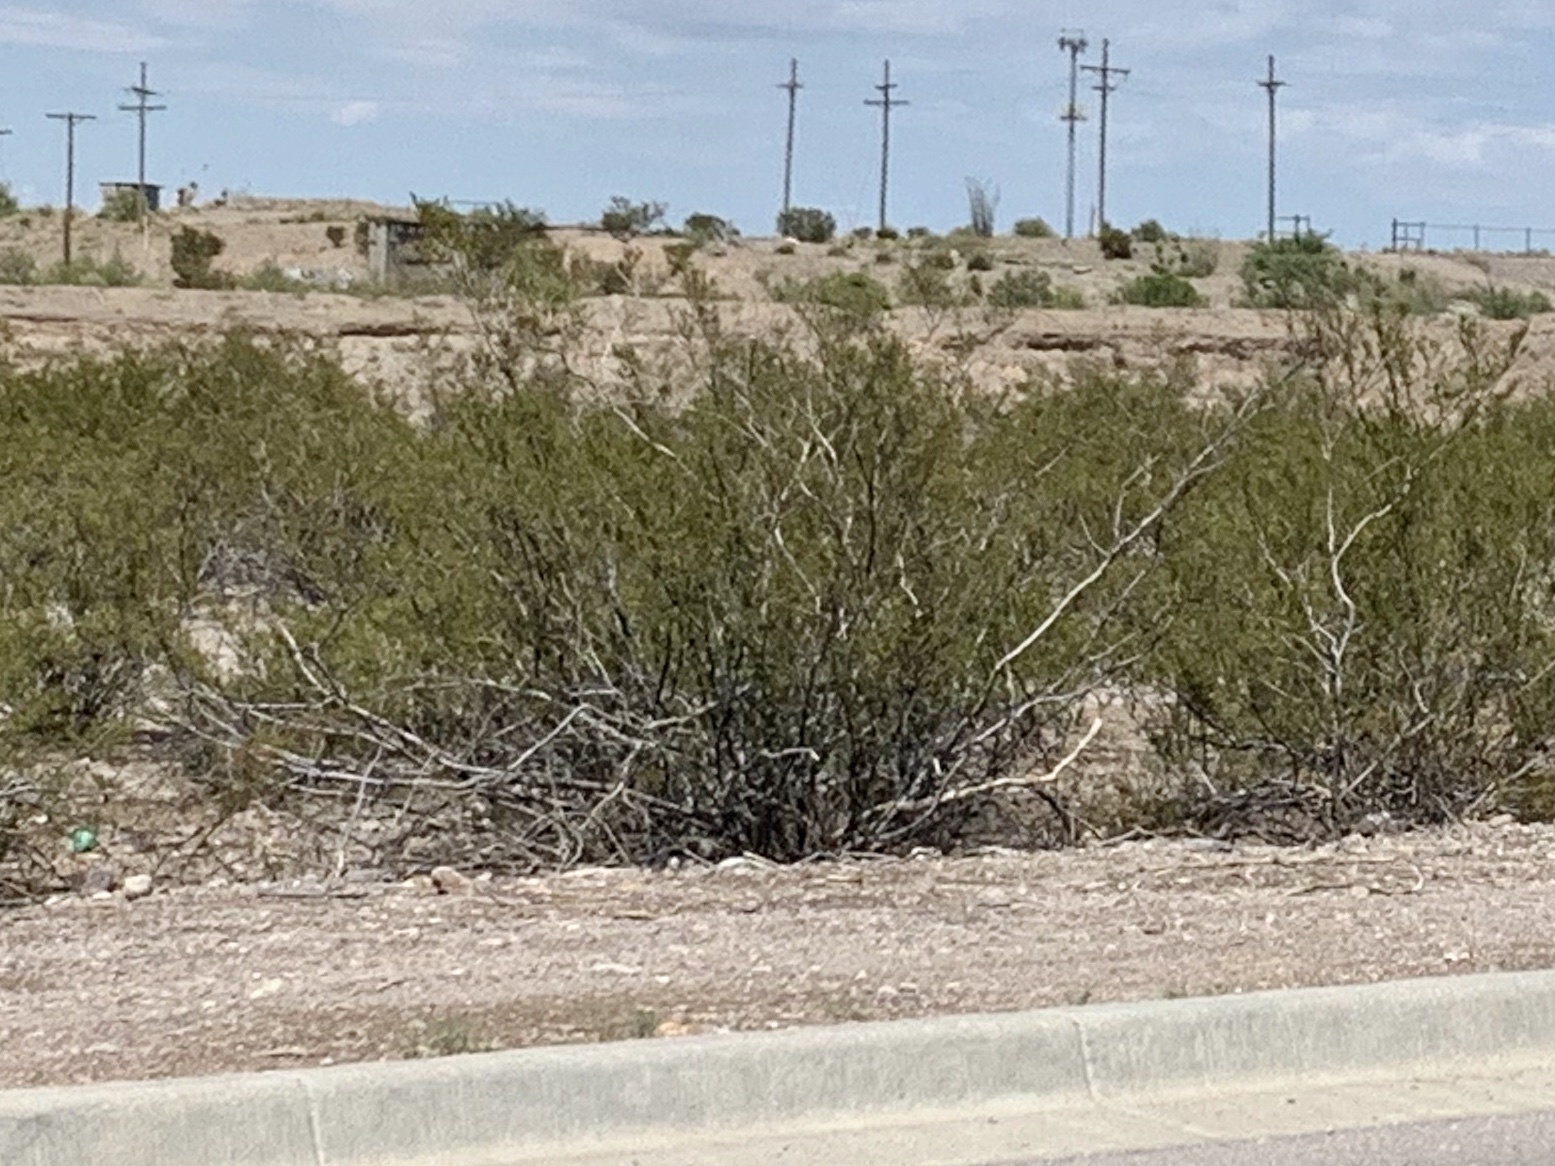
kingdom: Plantae
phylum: Tracheophyta
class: Magnoliopsida
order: Zygophyllales
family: Zygophyllaceae
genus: Larrea
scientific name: Larrea tridentata
